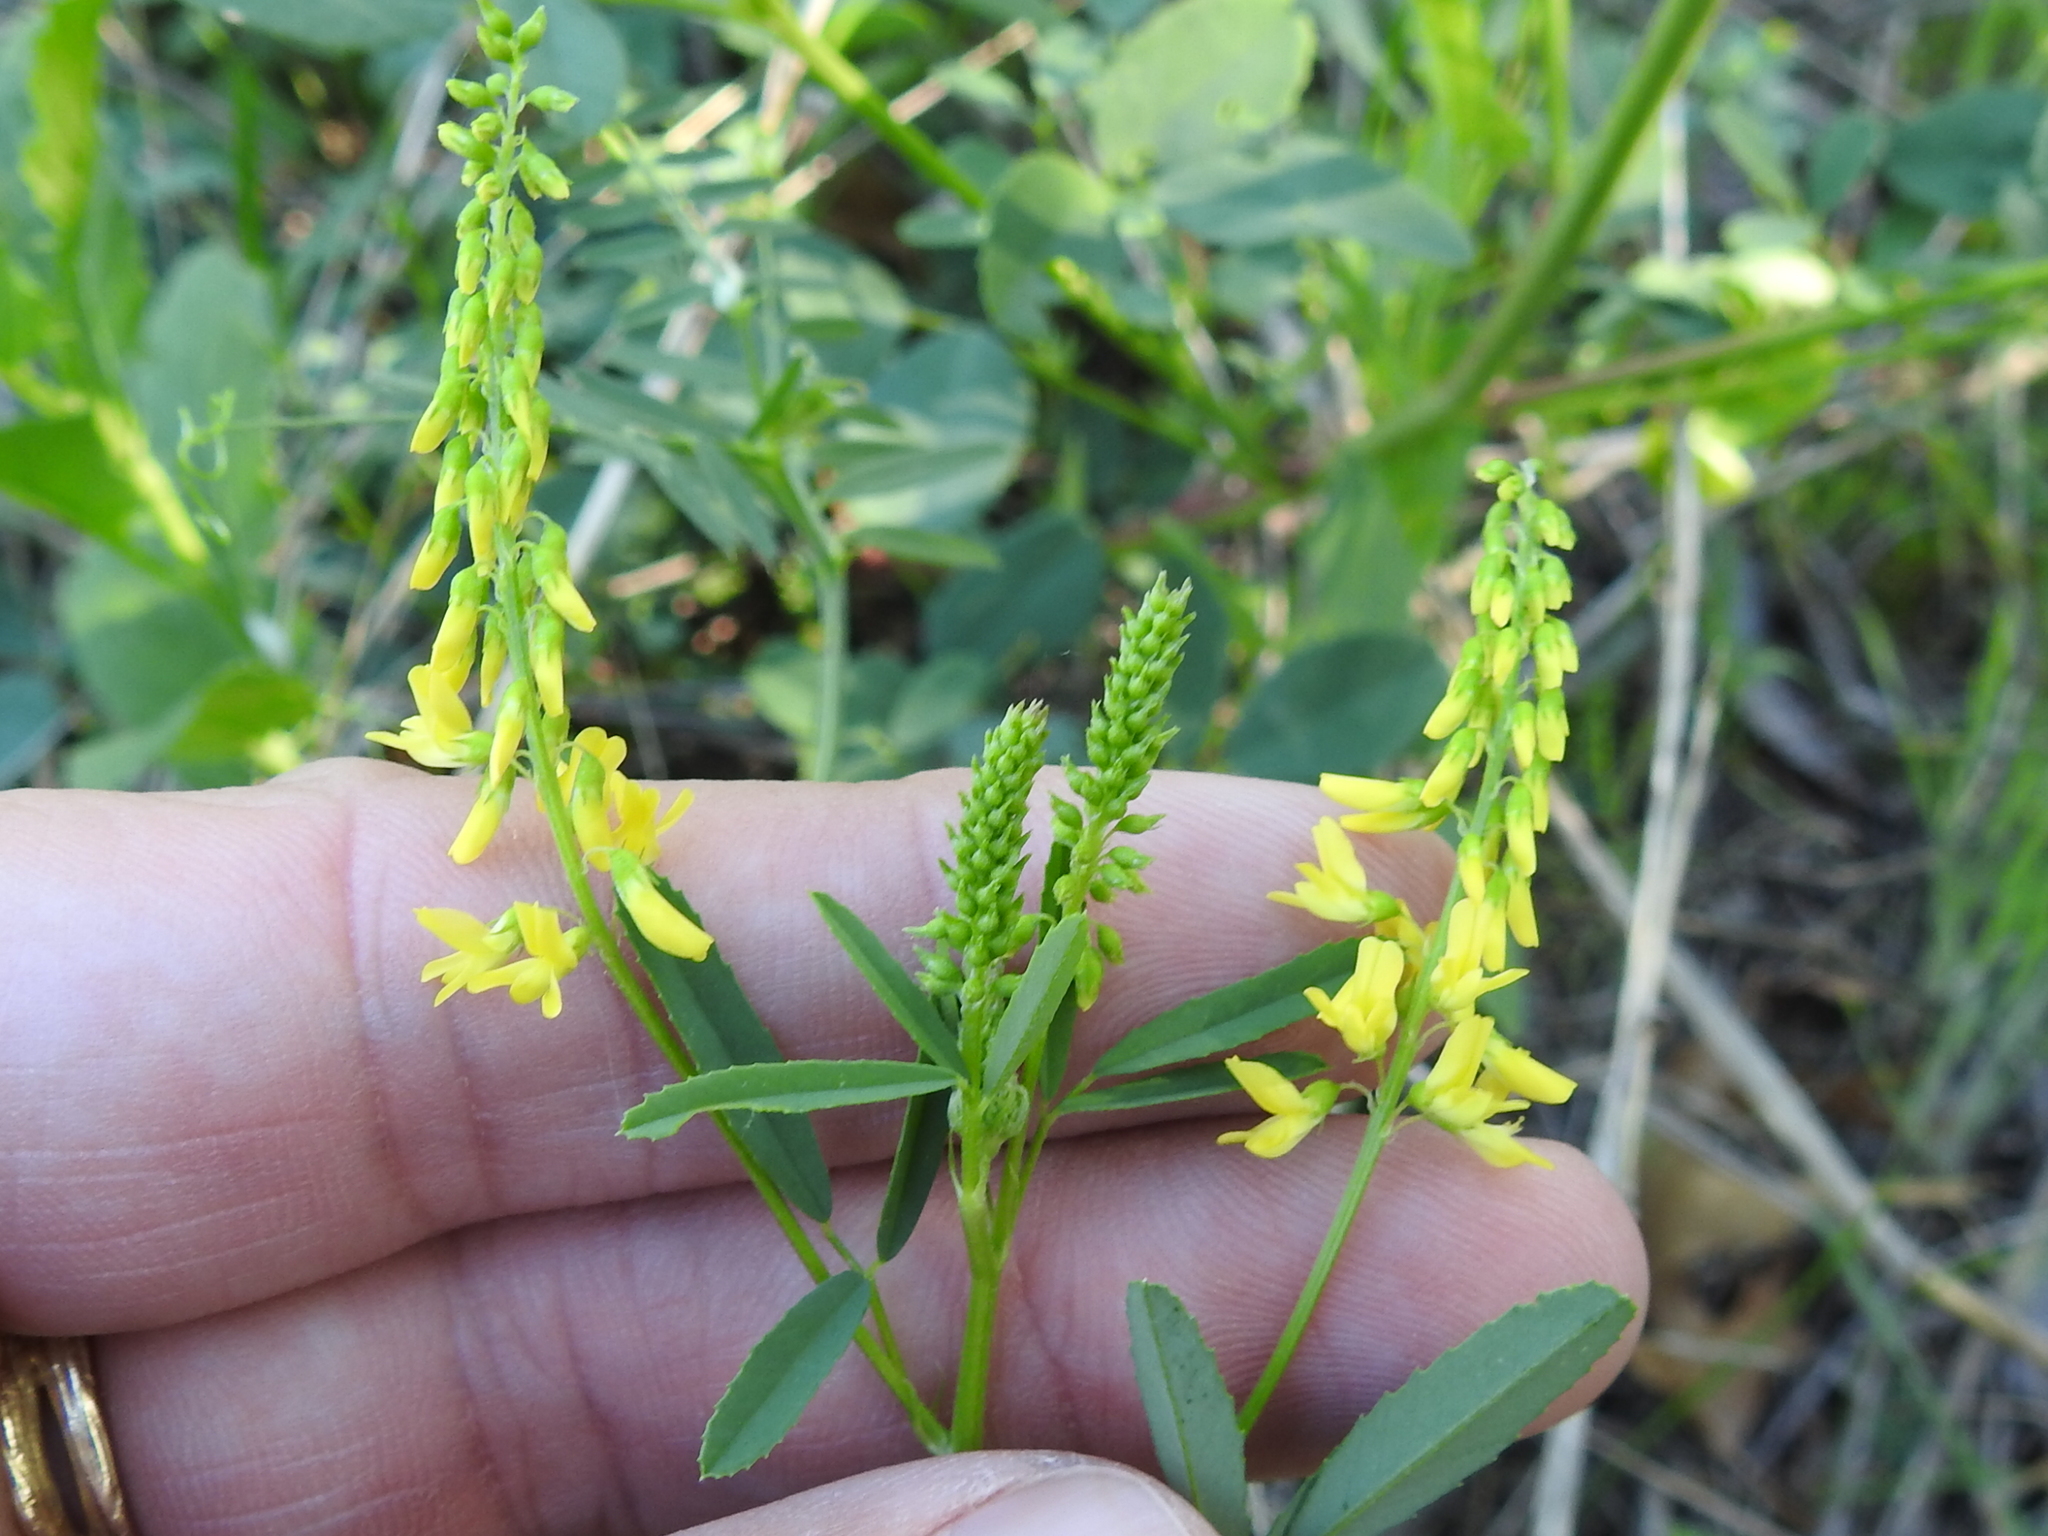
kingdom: Plantae
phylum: Tracheophyta
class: Magnoliopsida
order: Fabales
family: Fabaceae
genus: Melilotus
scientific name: Melilotus officinalis
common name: Sweetclover
